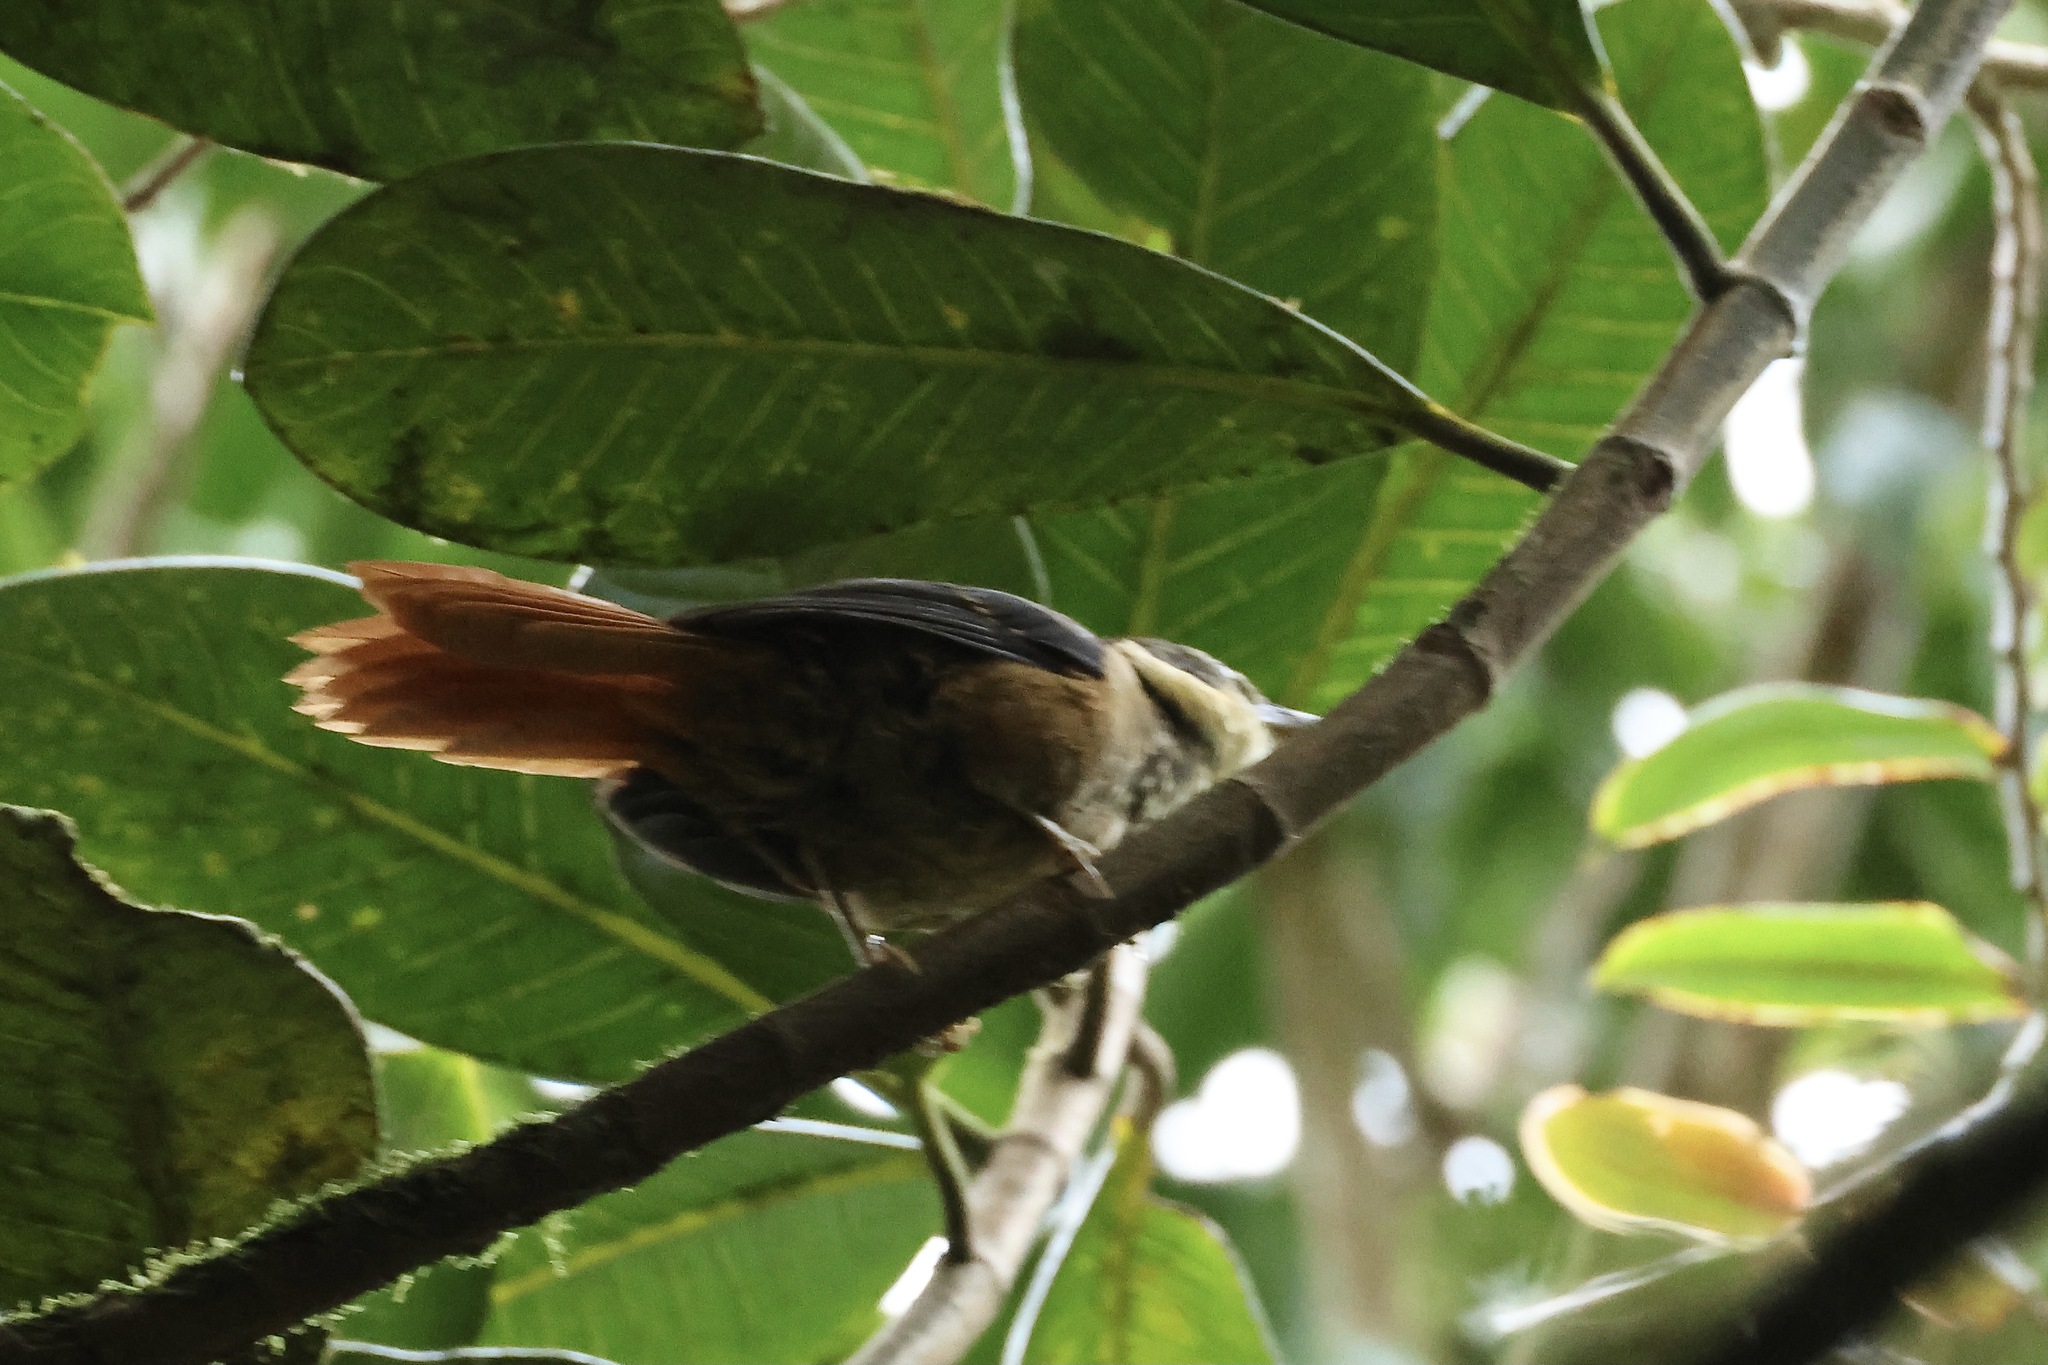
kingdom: Animalia
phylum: Chordata
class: Aves
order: Passeriformes
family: Furnariidae
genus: Pseudocolaptes
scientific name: Pseudocolaptes lawrencii
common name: Buffy tuftedcheek
